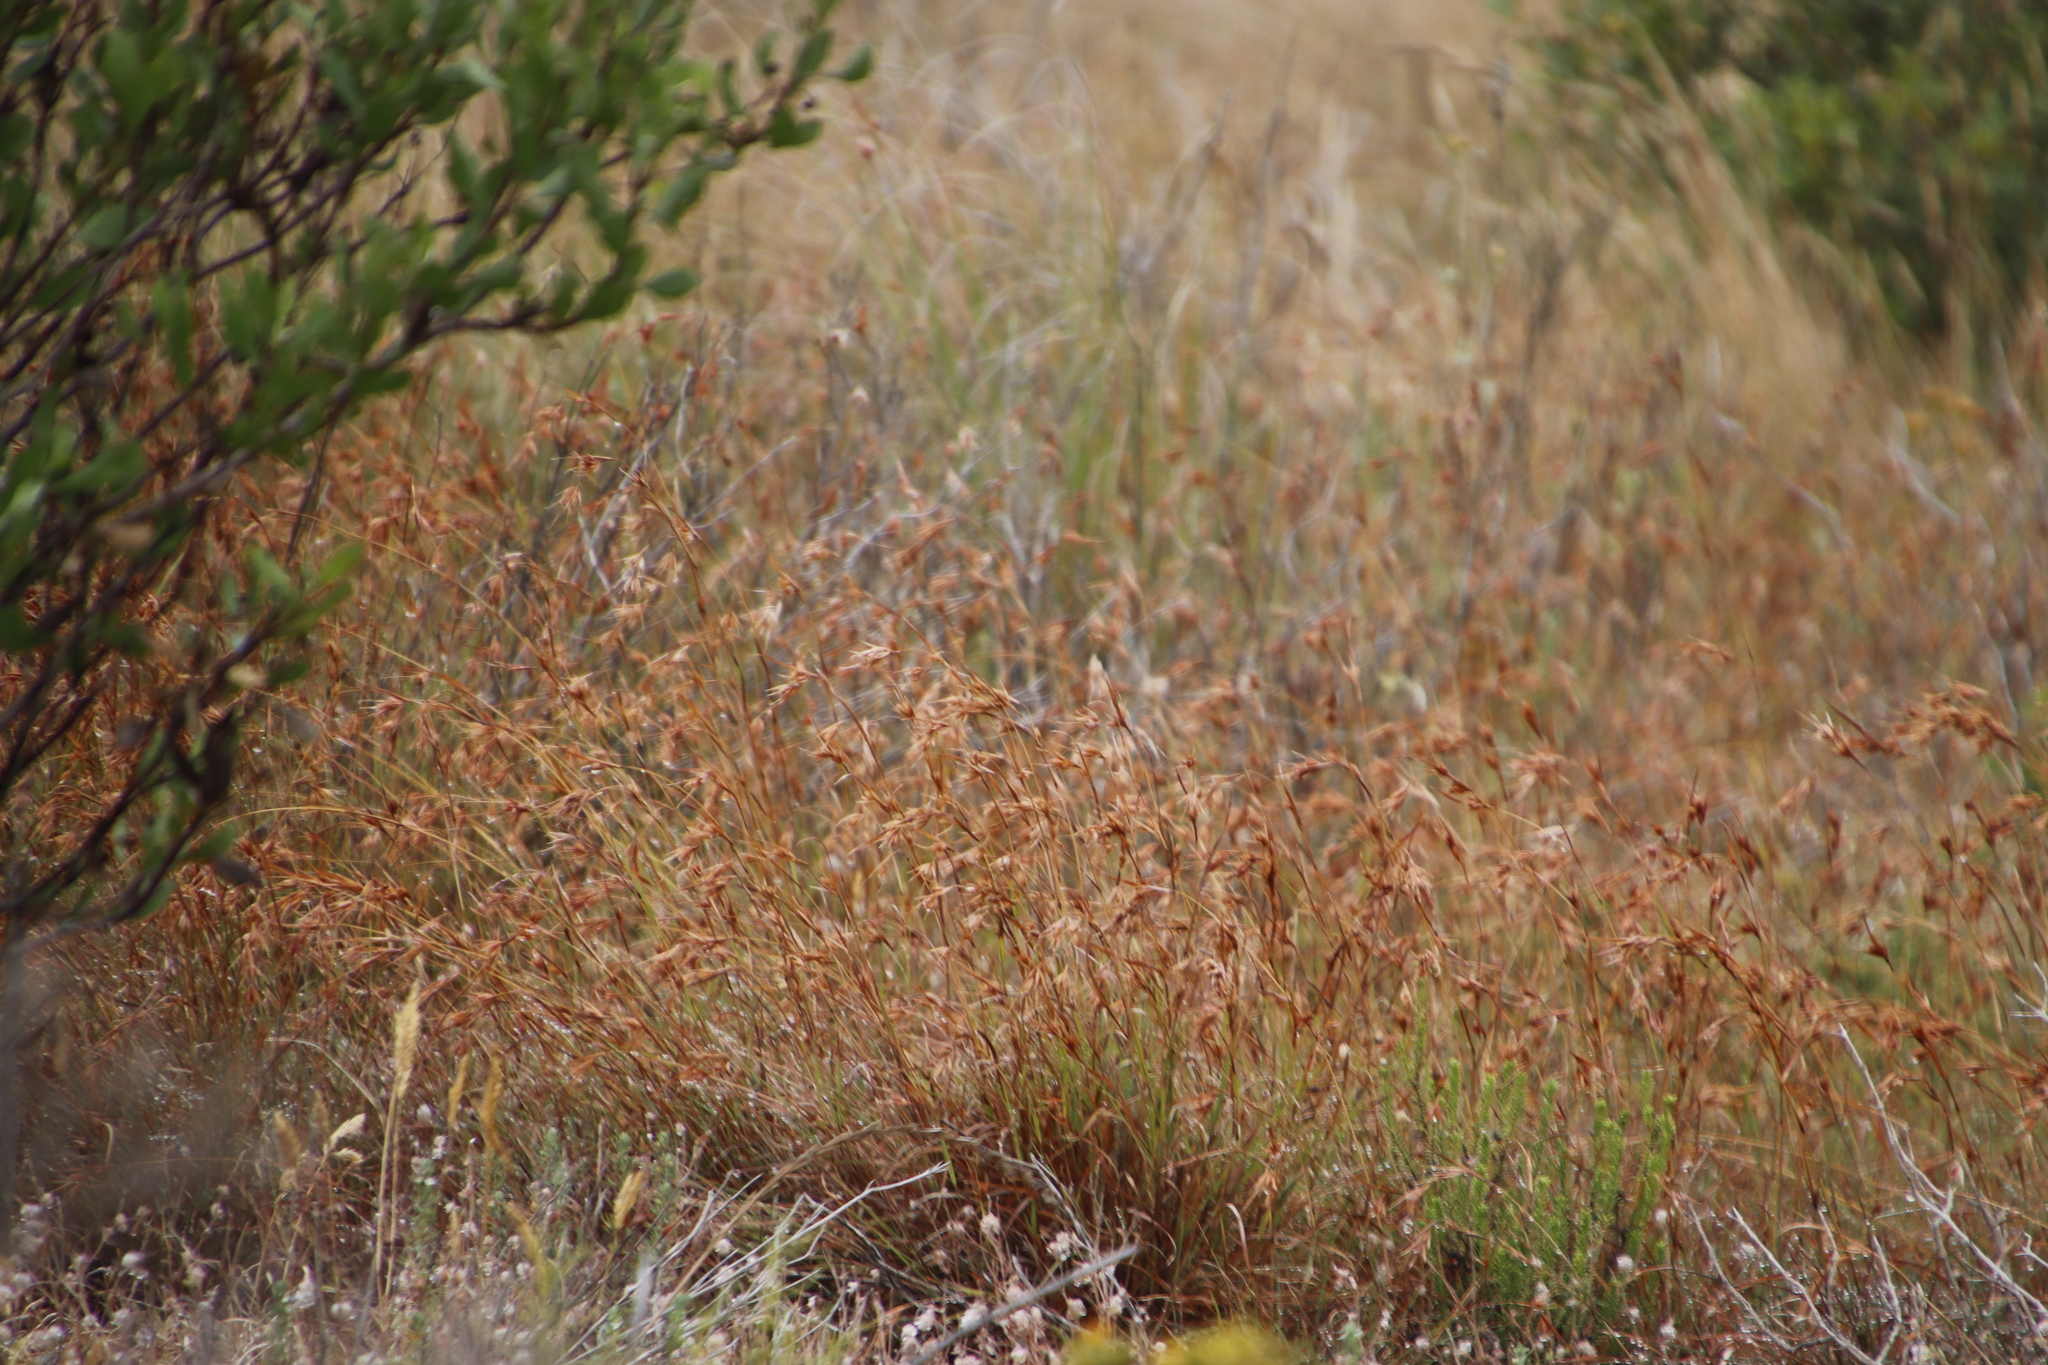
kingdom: Plantae
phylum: Tracheophyta
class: Liliopsida
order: Poales
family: Poaceae
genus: Themeda
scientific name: Themeda triandra
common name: Kangaroo grass
